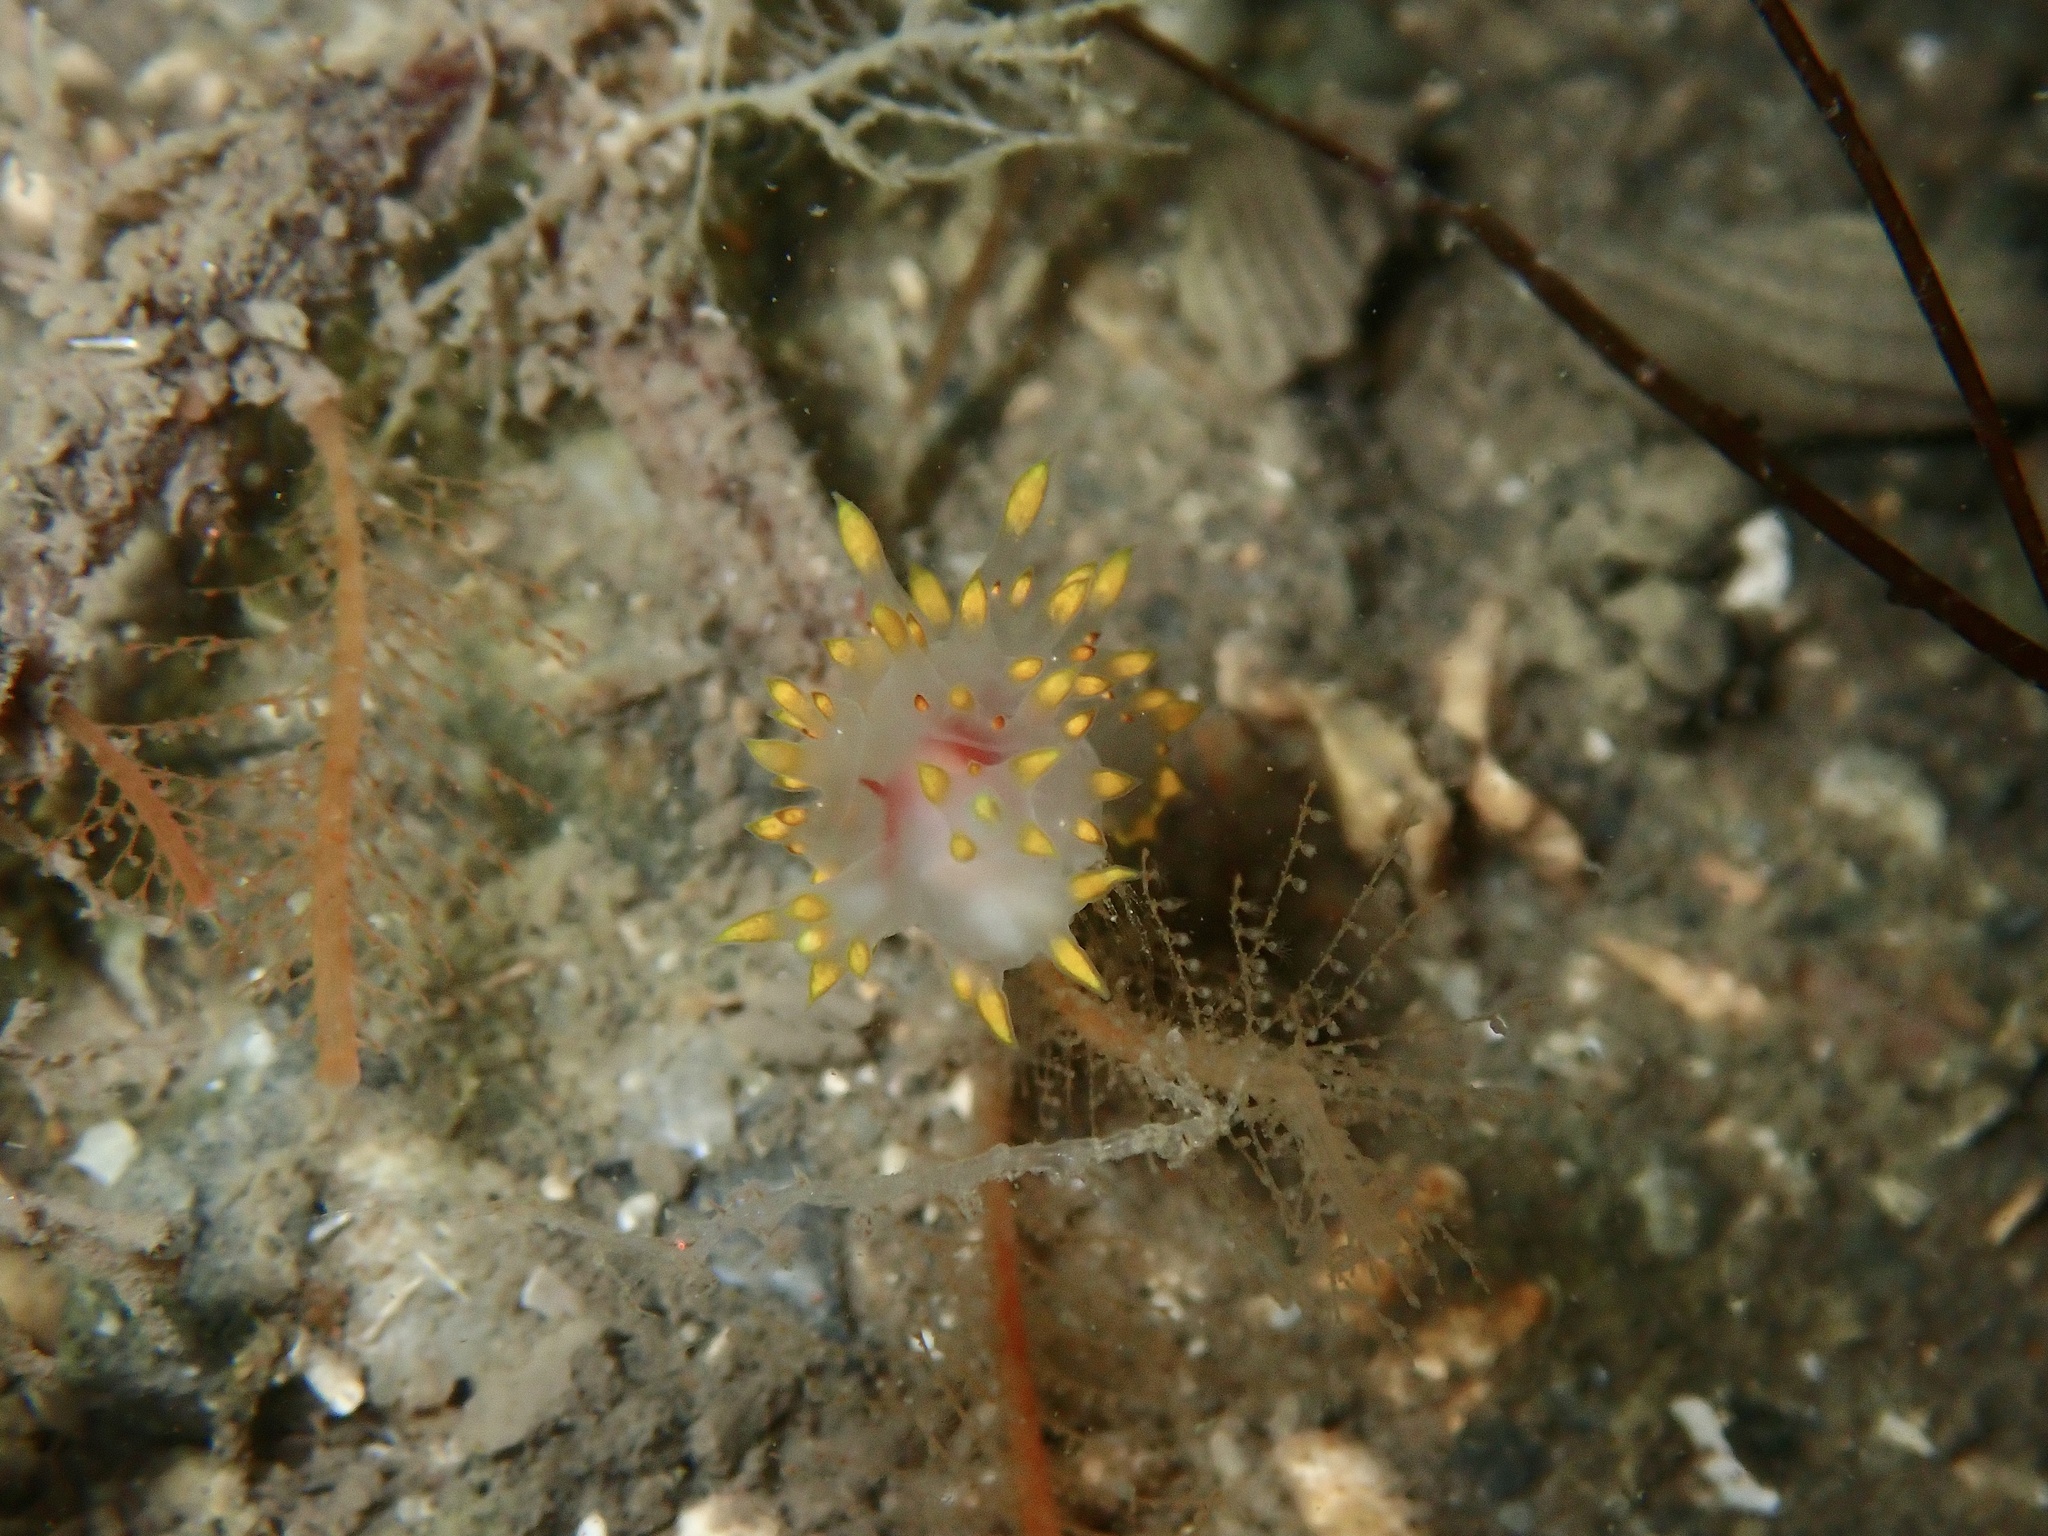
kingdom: Animalia
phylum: Mollusca
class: Gastropoda
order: Nudibranchia
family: Lomanotidae
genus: Lomanotus
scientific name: Lomanotus genei
